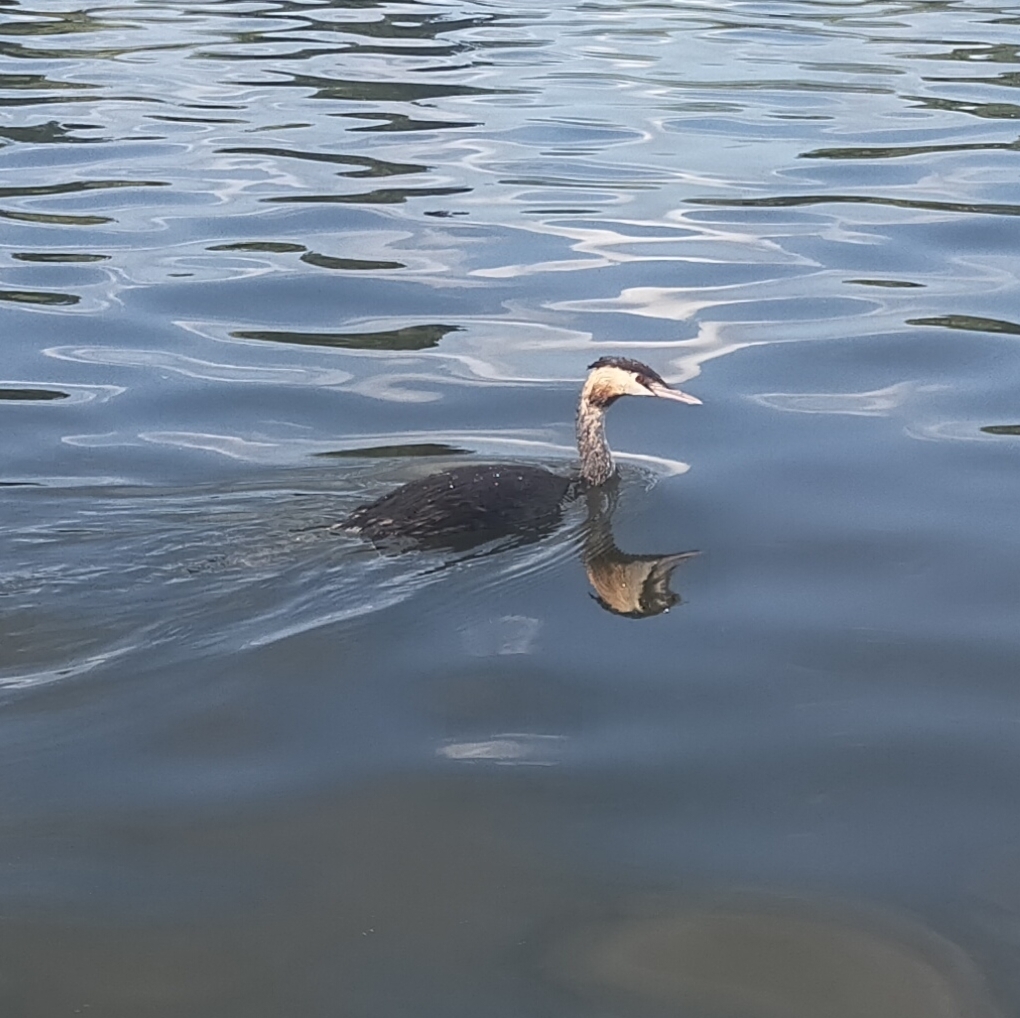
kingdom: Animalia
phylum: Chordata
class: Aves
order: Podicipediformes
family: Podicipedidae
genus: Podiceps
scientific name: Podiceps cristatus
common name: Great crested grebe
